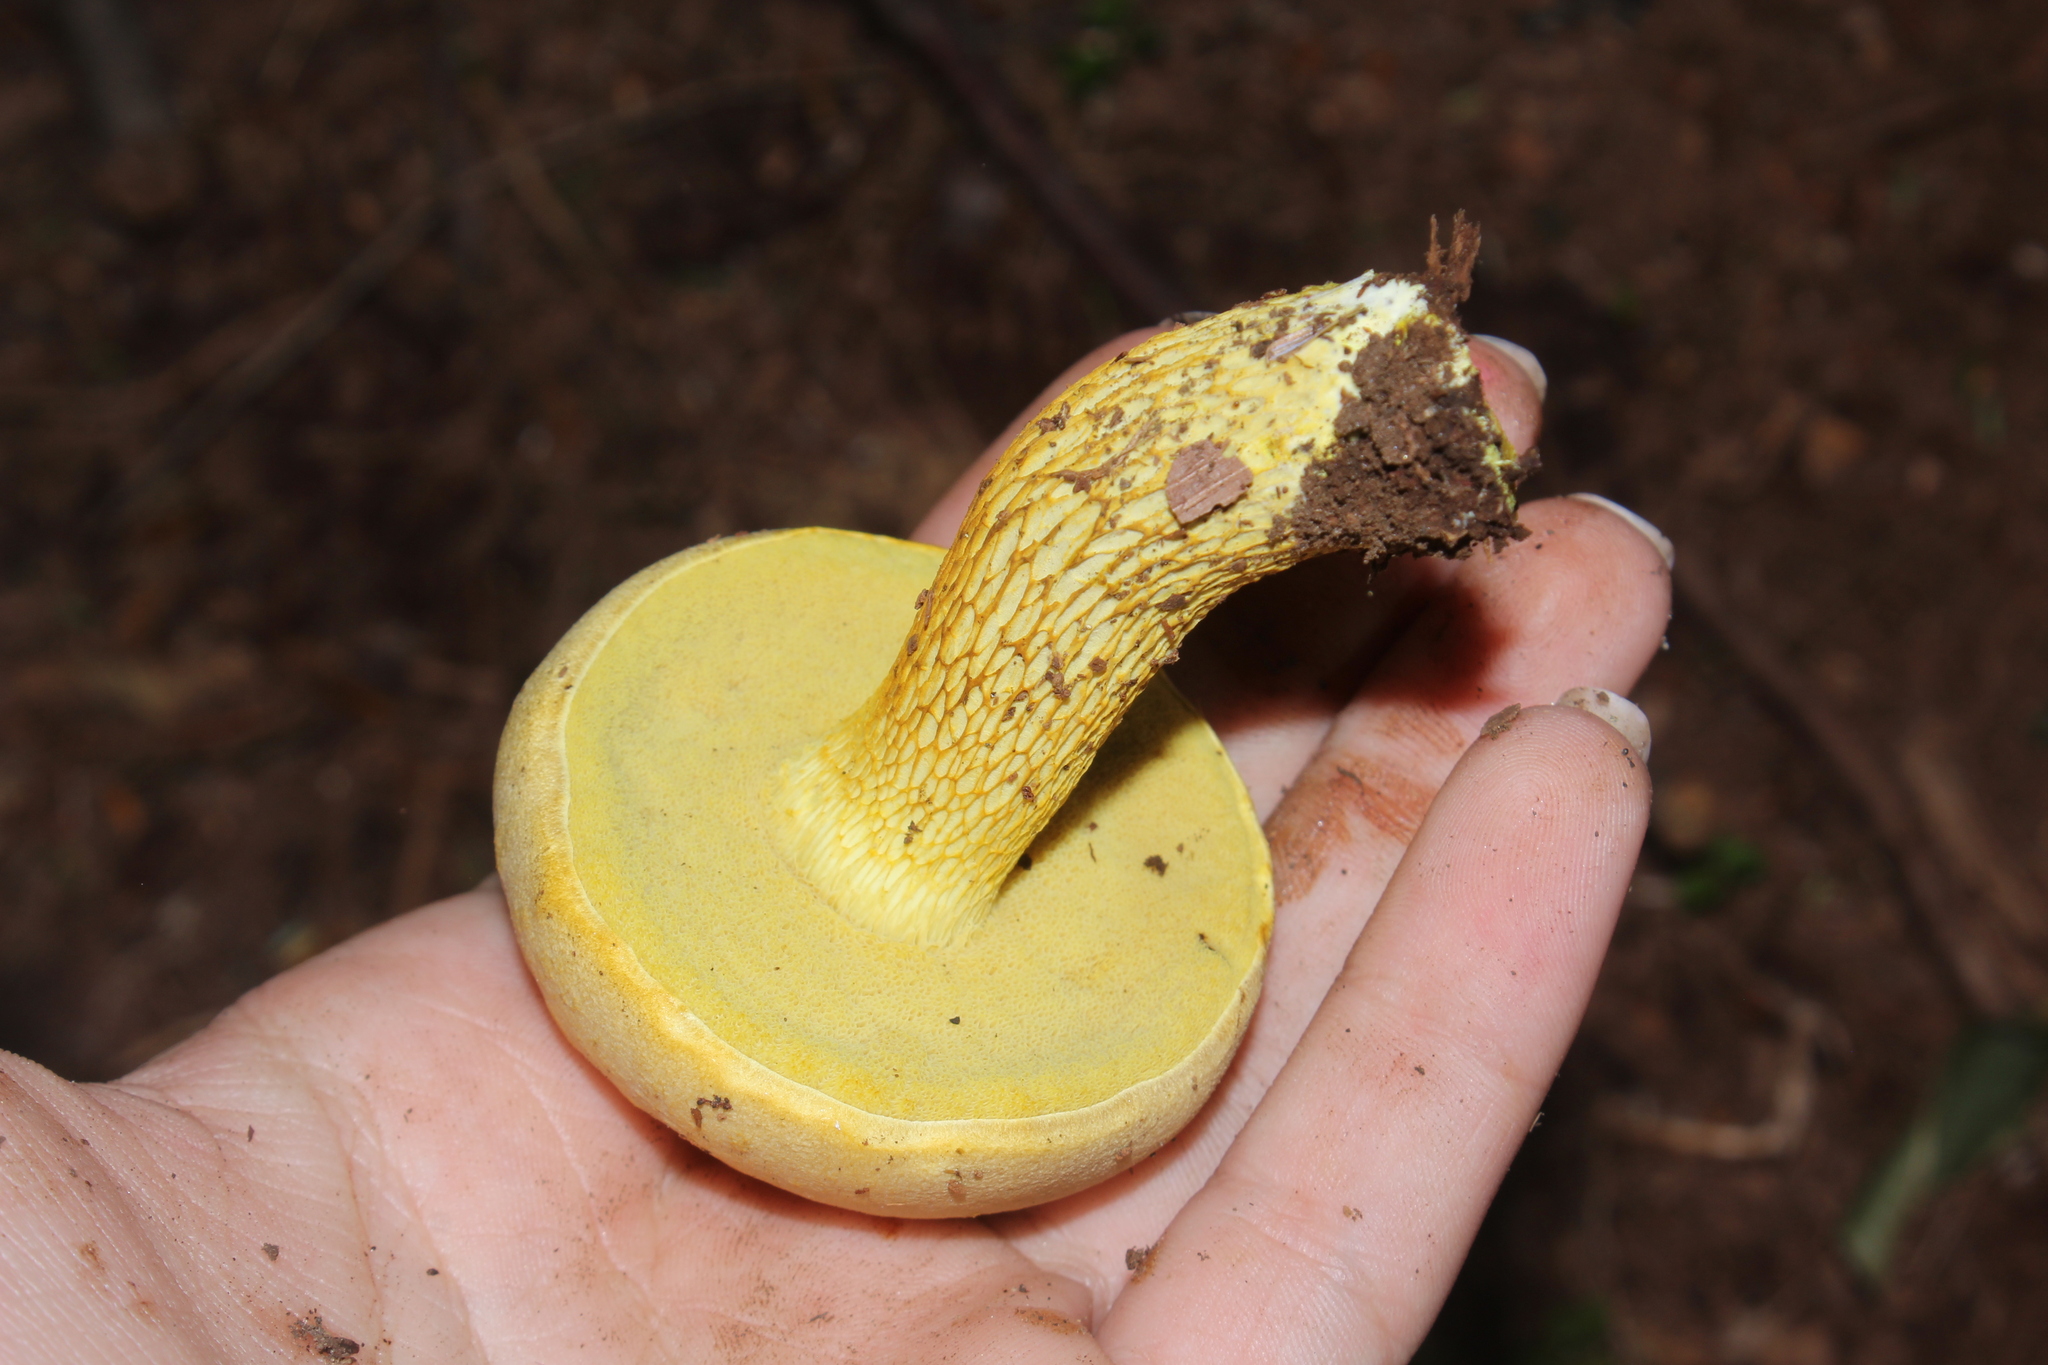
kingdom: Fungi
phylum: Basidiomycota
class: Agaricomycetes
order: Boletales
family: Boletaceae
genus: Retiboletus
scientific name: Retiboletus ornatipes
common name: Ornate-stalked bolete
